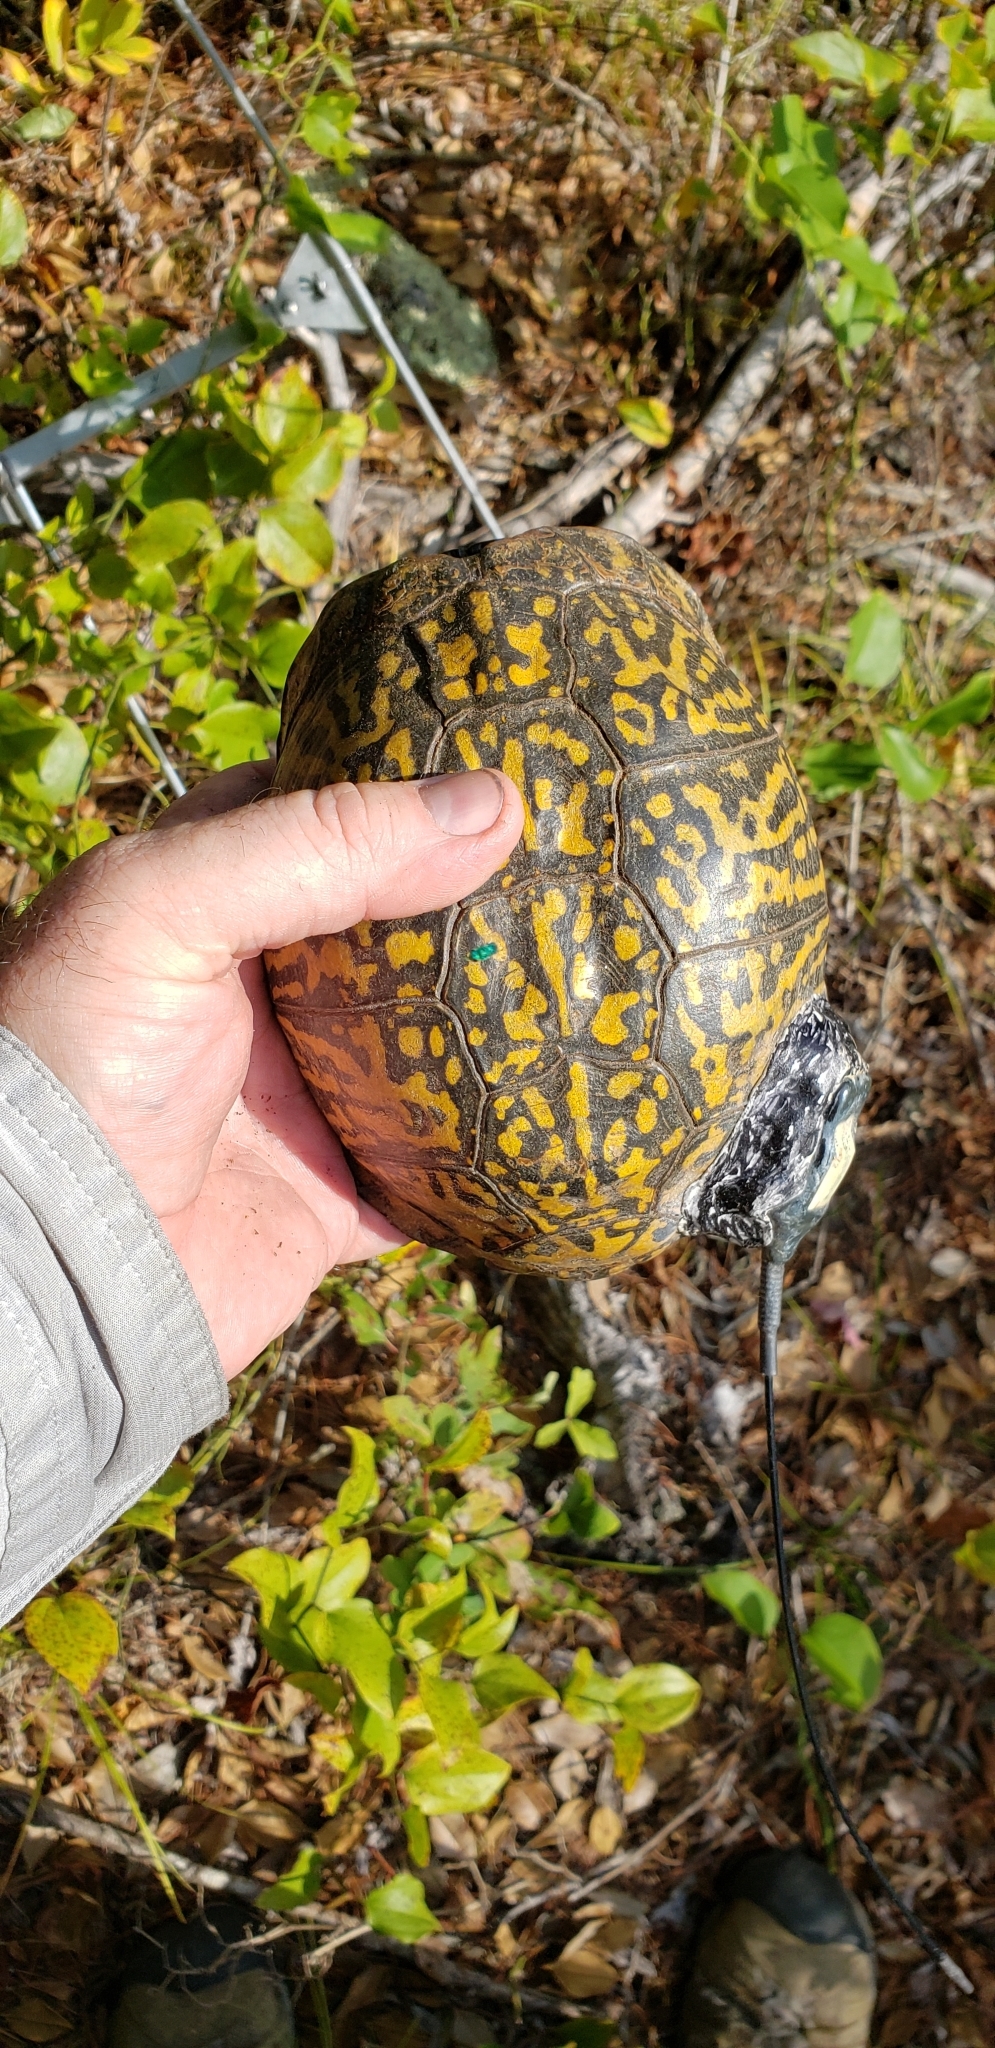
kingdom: Animalia
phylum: Chordata
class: Testudines
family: Emydidae
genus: Terrapene
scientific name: Terrapene carolina
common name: Common box turtle
